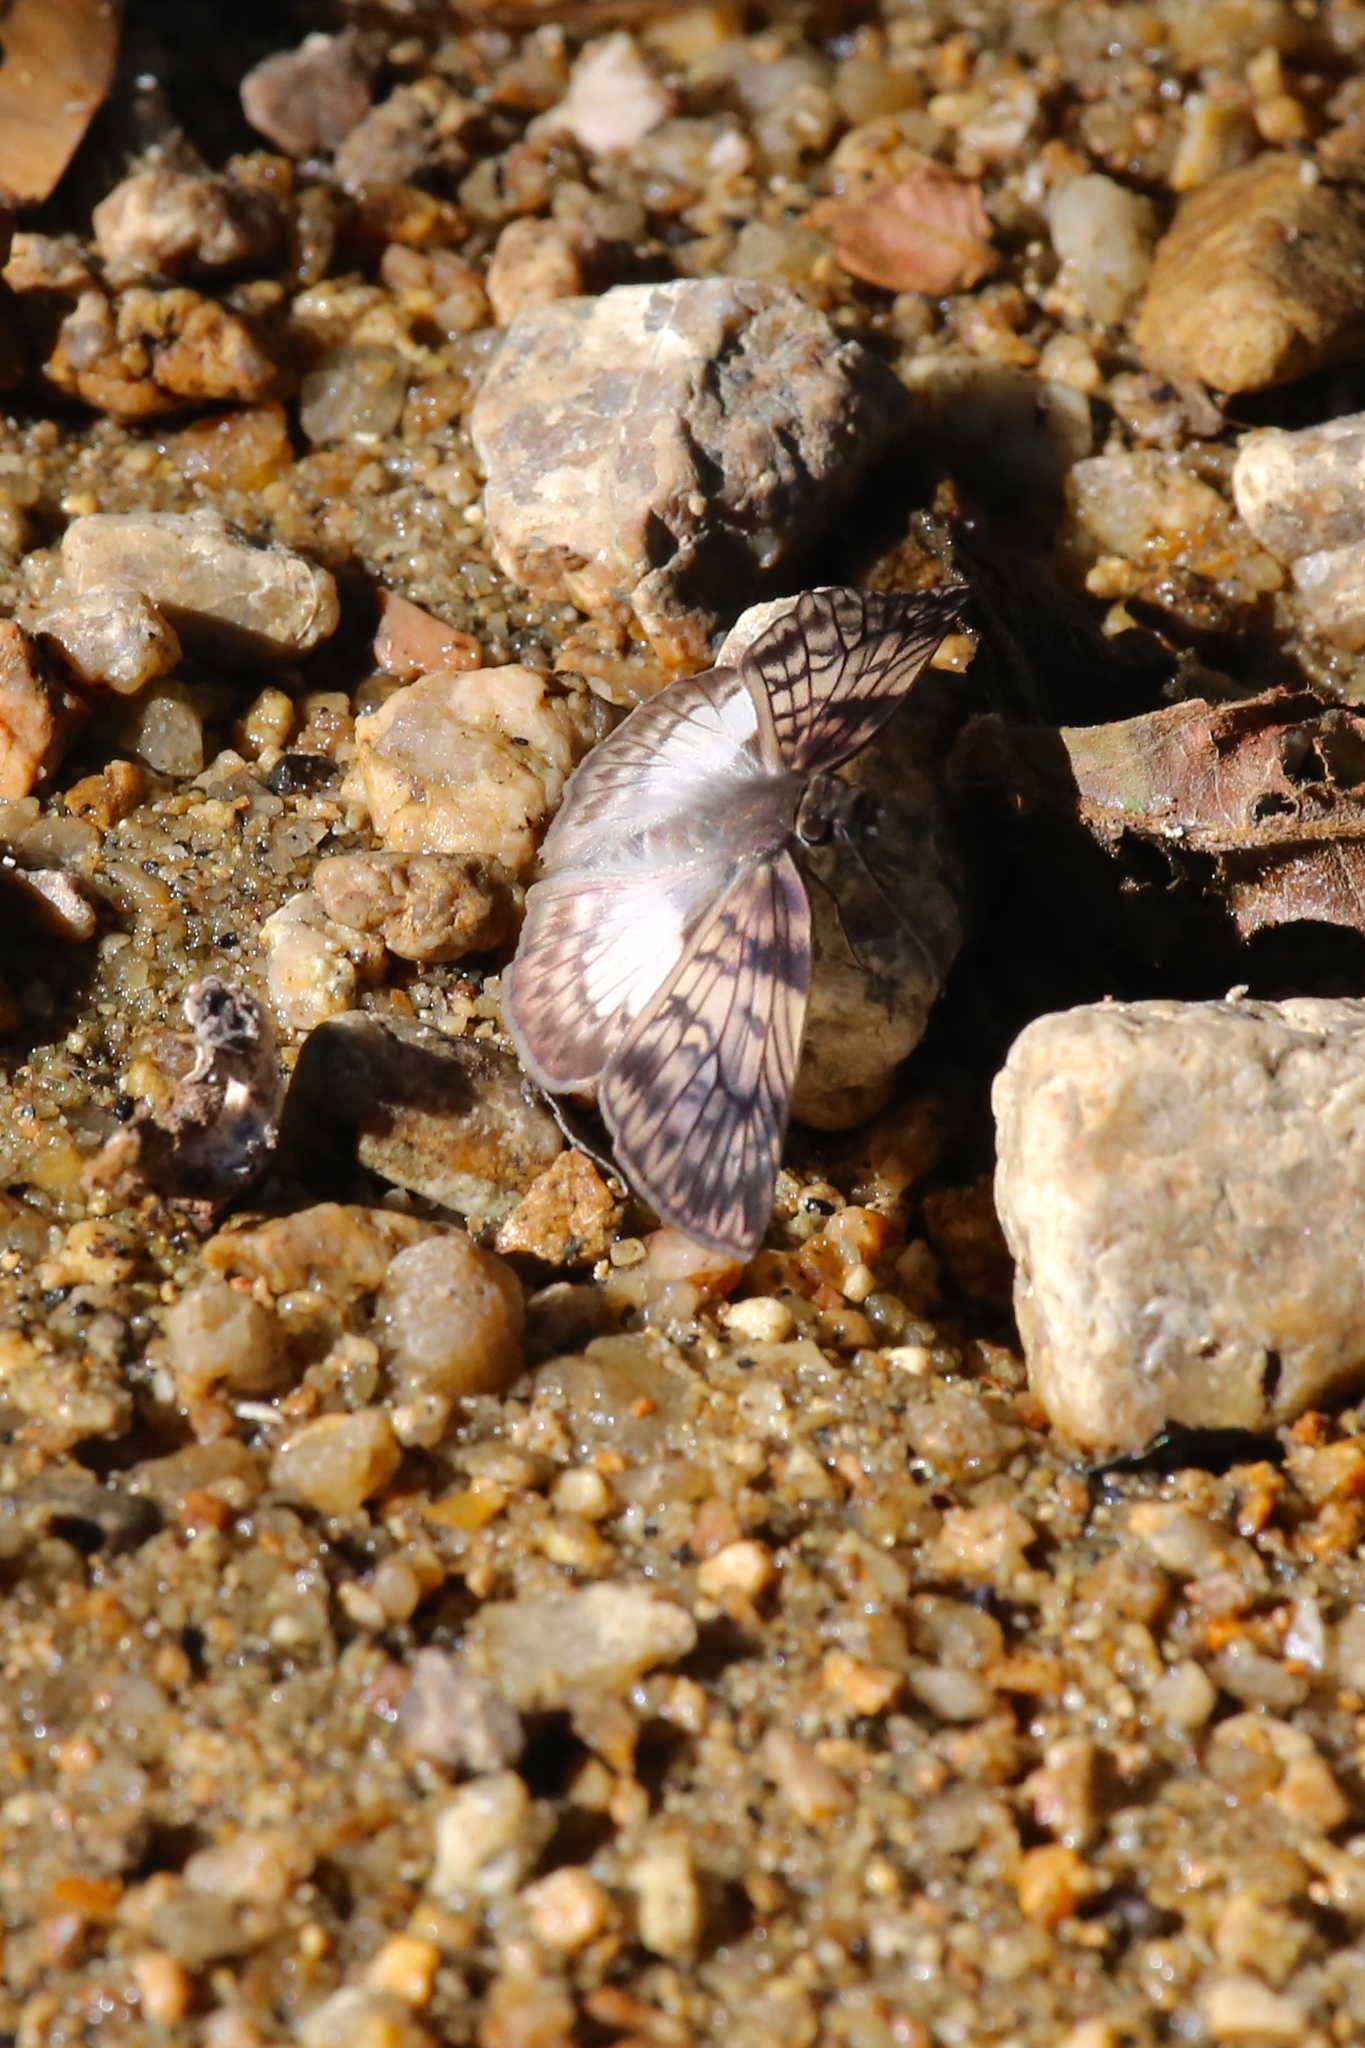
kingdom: Animalia
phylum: Arthropoda
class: Insecta
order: Lepidoptera
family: Hesperiidae
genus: Mylon
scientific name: Mylon maimon
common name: Common mylon
